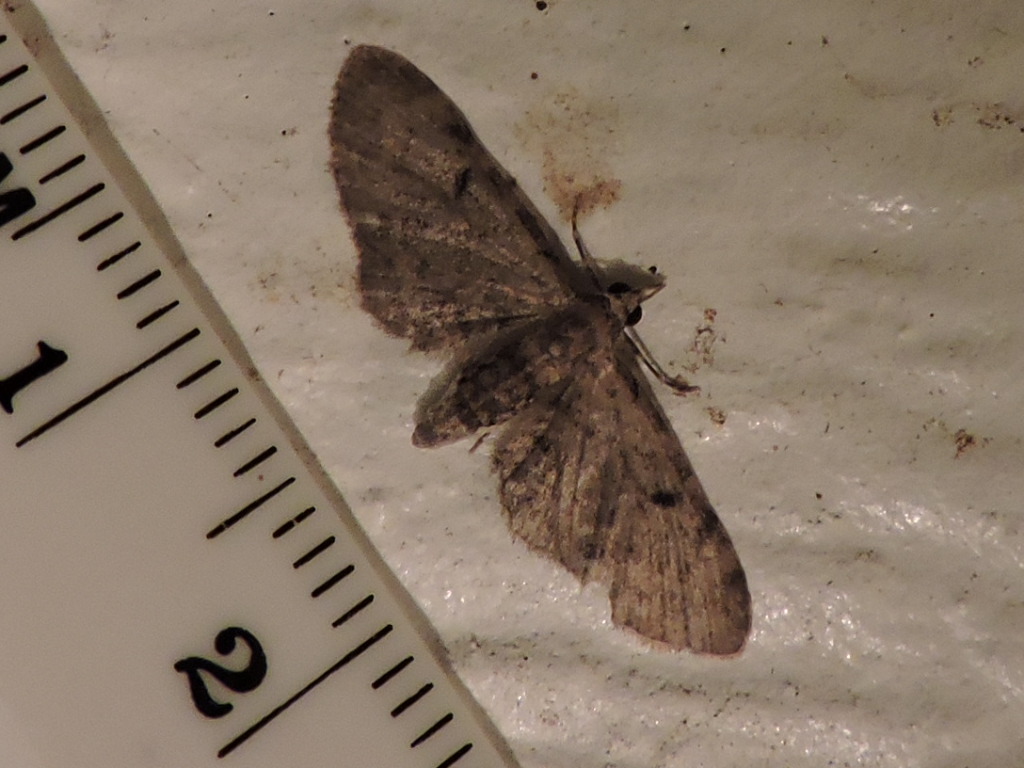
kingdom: Animalia
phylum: Arthropoda
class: Insecta
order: Lepidoptera
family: Geometridae
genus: Eupithecia
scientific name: Eupithecia miserulata
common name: Common eupithecia
